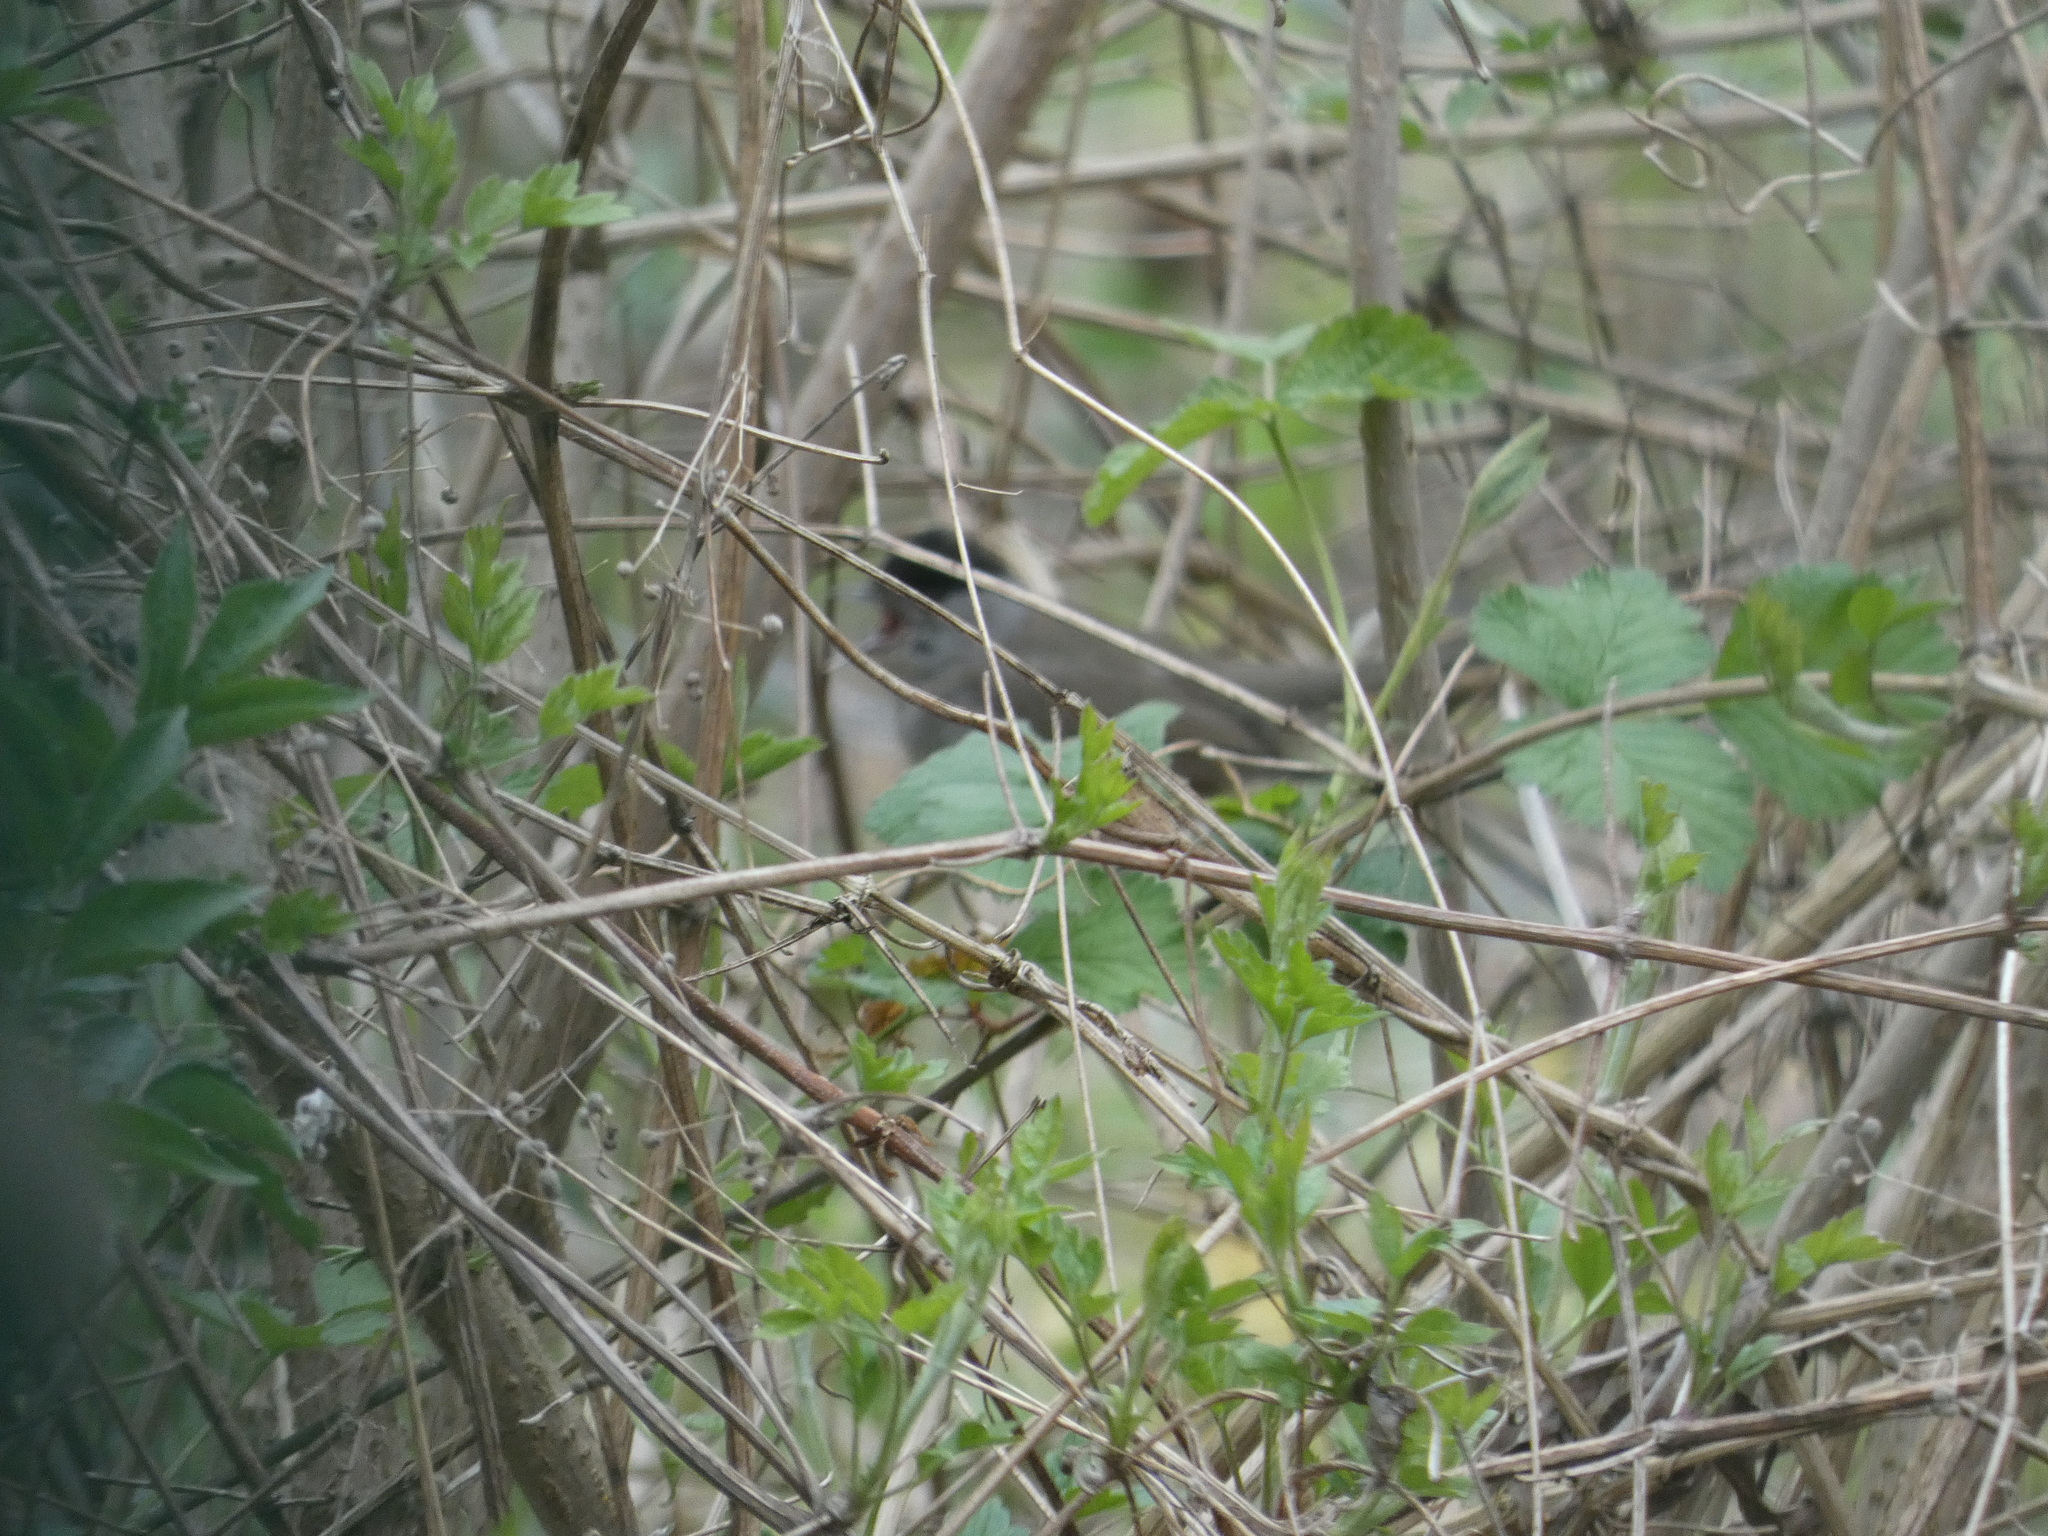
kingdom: Animalia
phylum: Chordata
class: Aves
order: Passeriformes
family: Sylviidae
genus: Sylvia
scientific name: Sylvia atricapilla
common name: Eurasian blackcap
